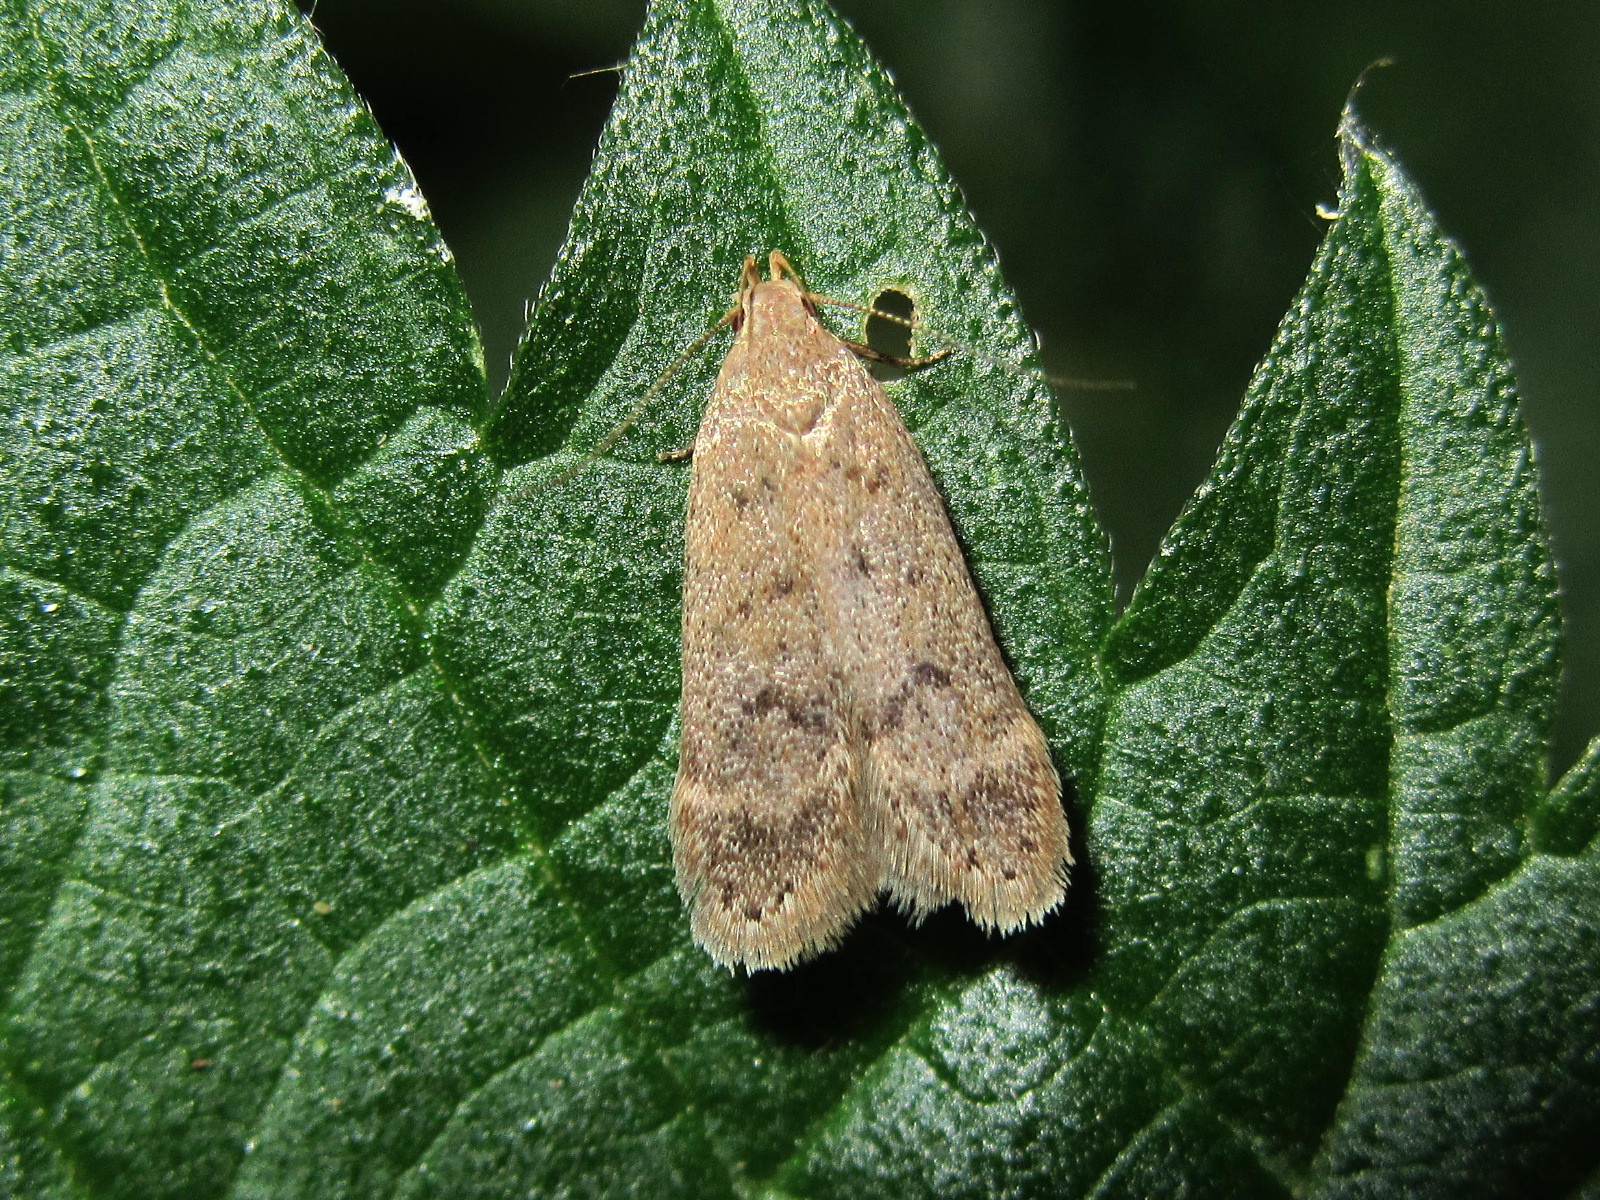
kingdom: Animalia
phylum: Arthropoda
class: Insecta
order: Lepidoptera
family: Gelechiidae
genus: Anacampsis
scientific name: Anacampsis timidella
